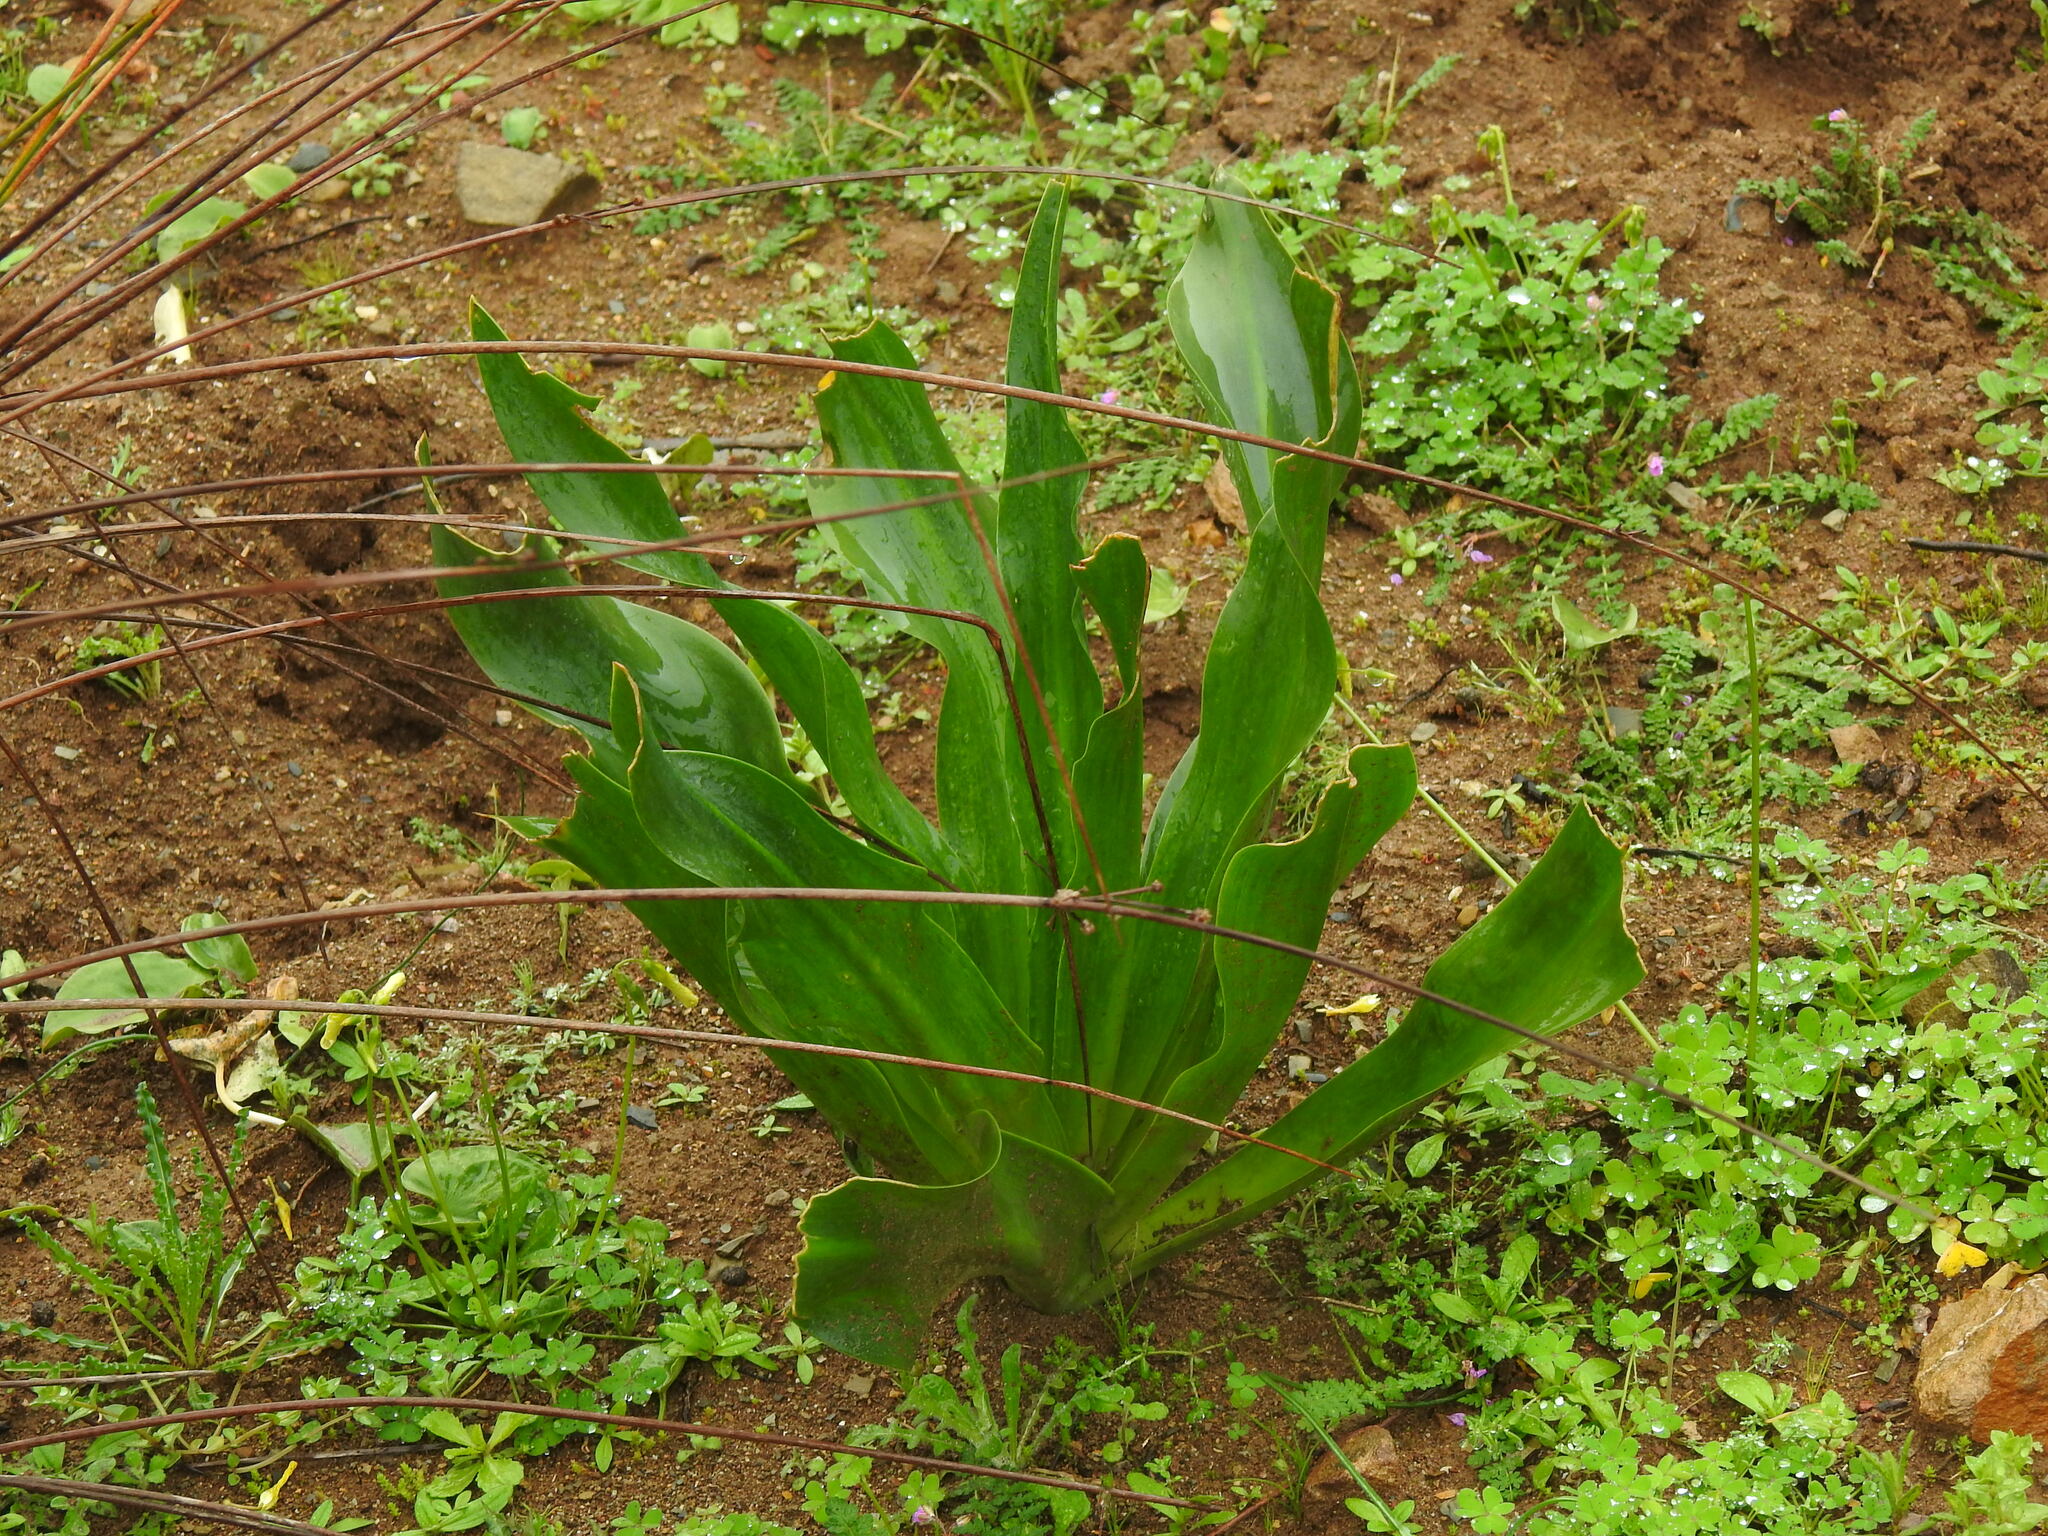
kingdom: Plantae
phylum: Tracheophyta
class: Liliopsida
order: Asparagales
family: Asparagaceae
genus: Drimia
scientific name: Drimia maritima
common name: Maritime squill
